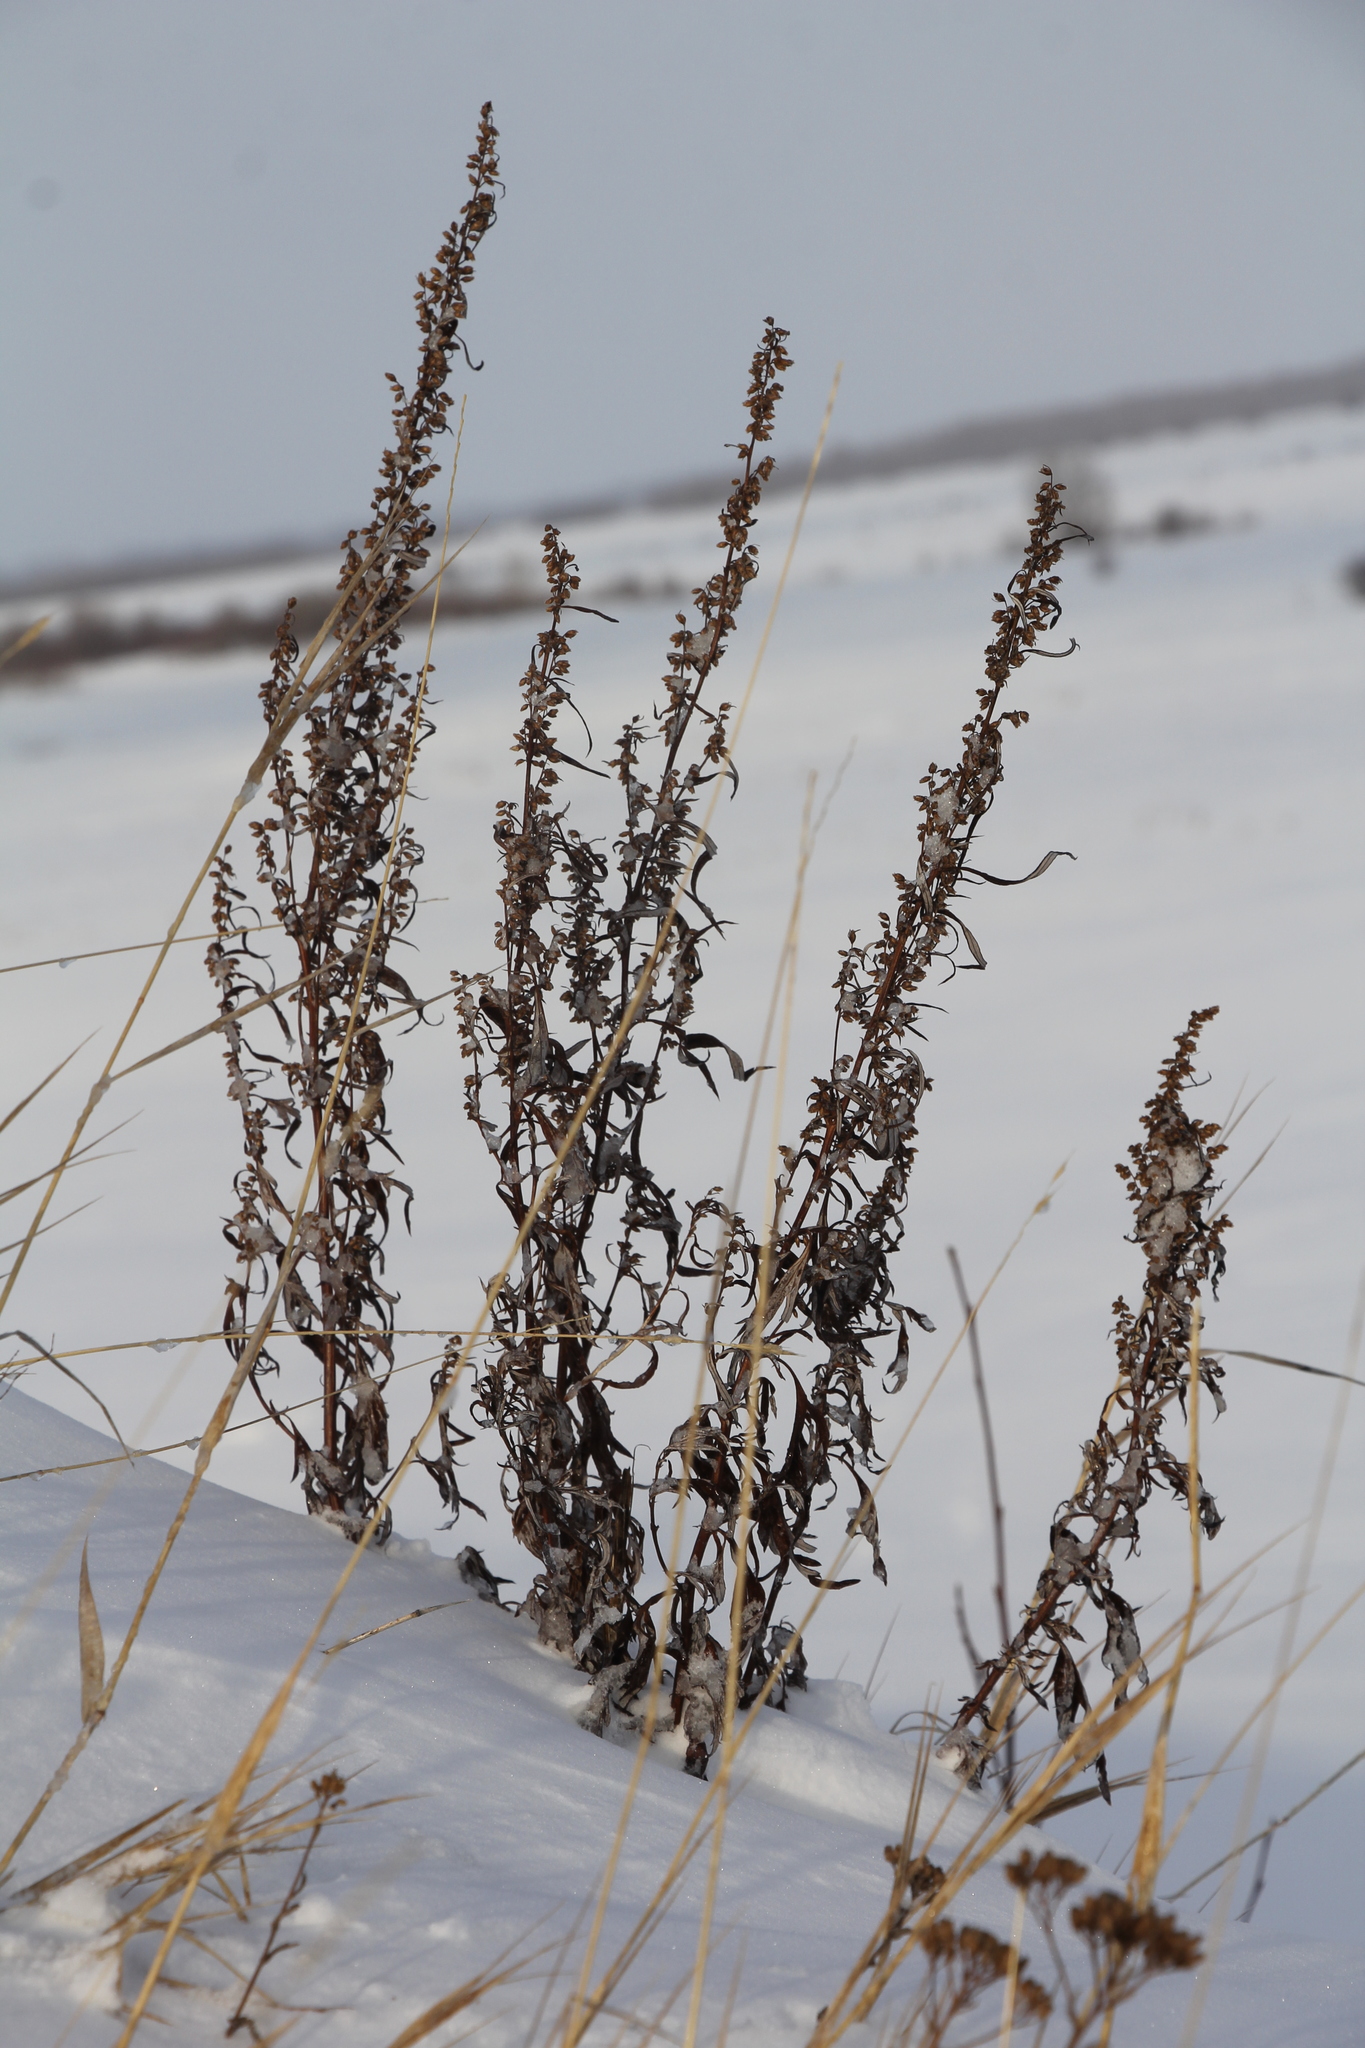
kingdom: Plantae
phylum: Tracheophyta
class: Magnoliopsida
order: Asterales
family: Asteraceae
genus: Artemisia
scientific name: Artemisia vulgaris
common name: Mugwort
